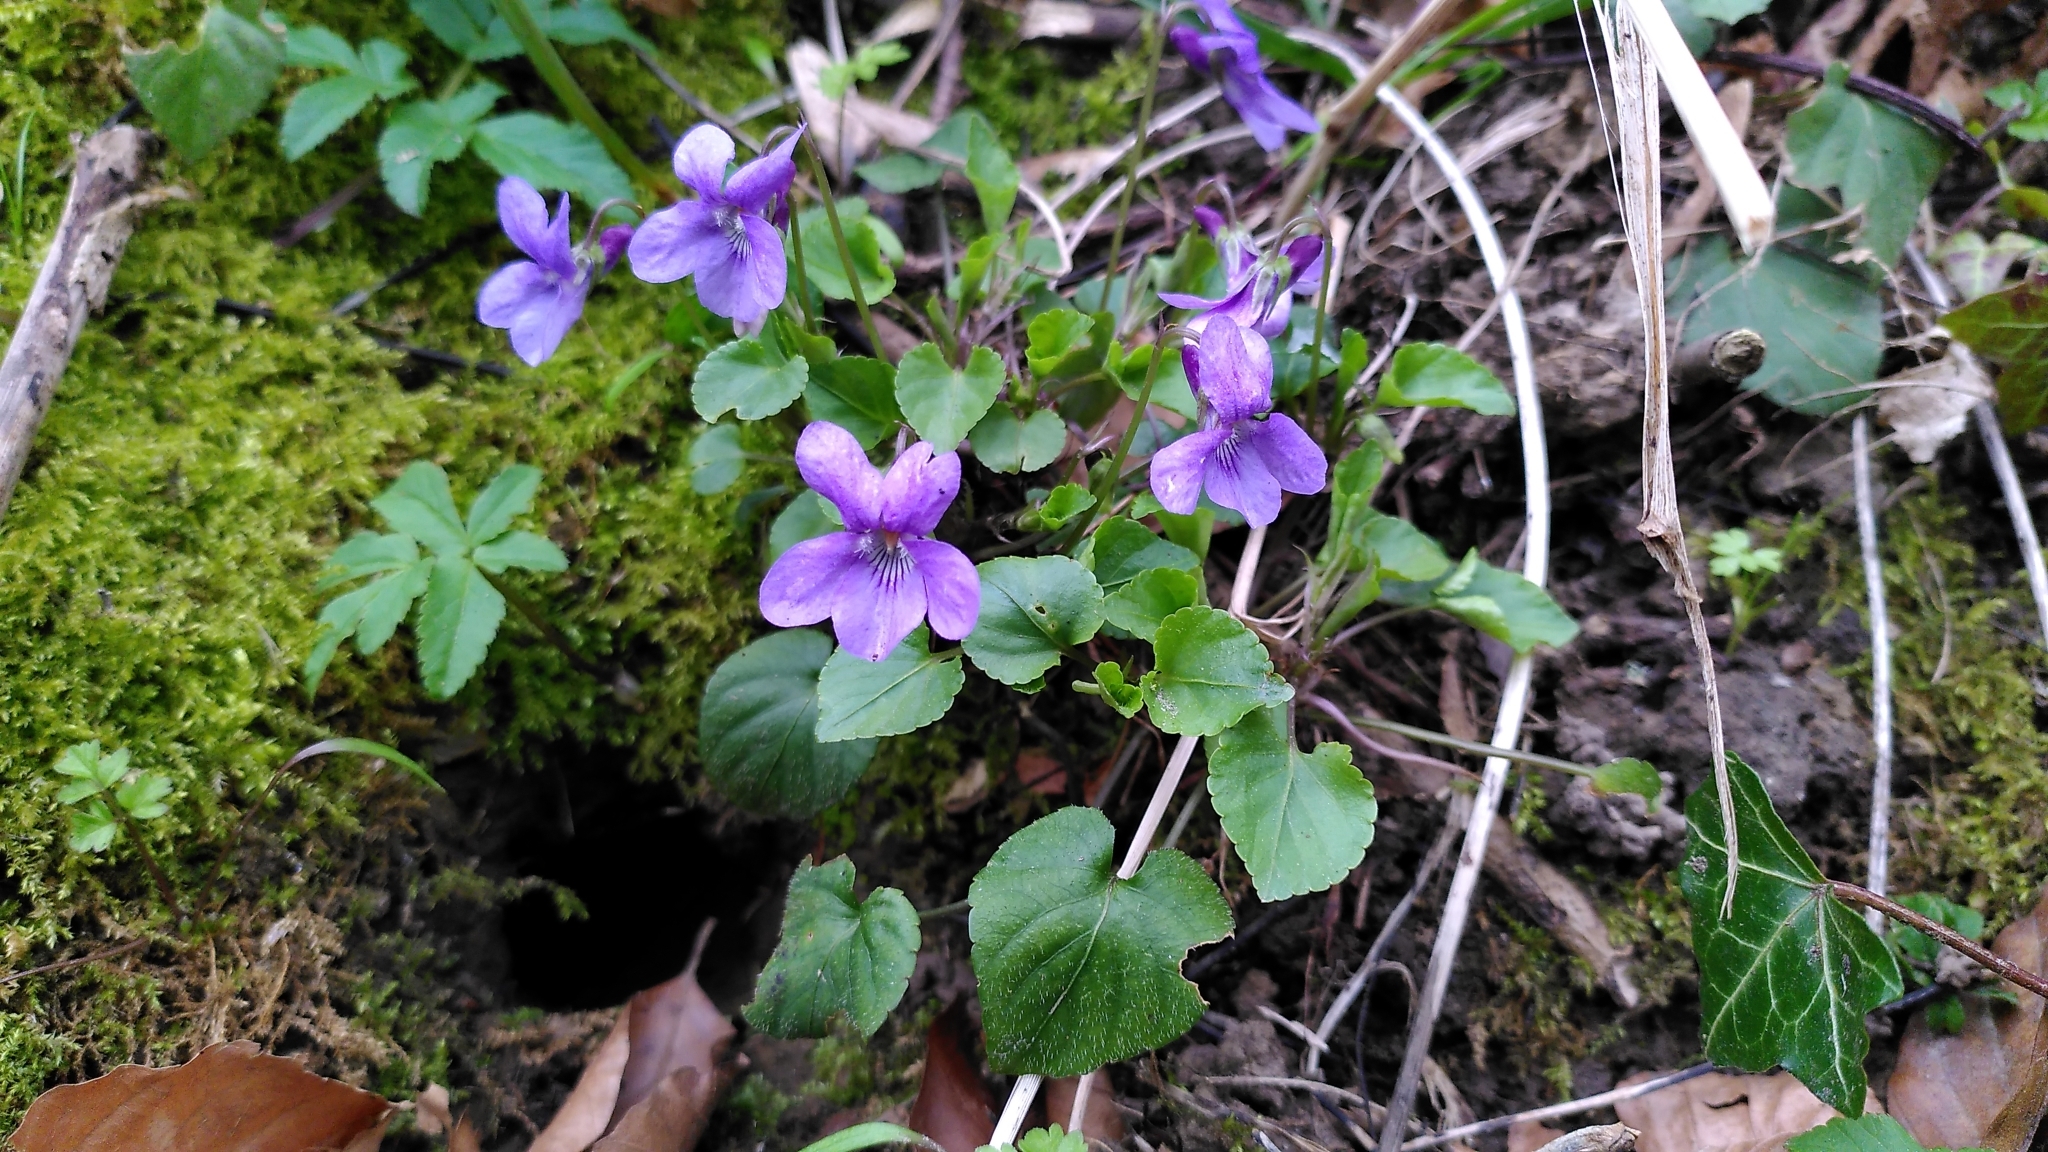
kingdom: Plantae
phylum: Tracheophyta
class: Magnoliopsida
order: Malpighiales
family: Violaceae
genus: Viola
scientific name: Viola reichenbachiana
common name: Early dog-violet
